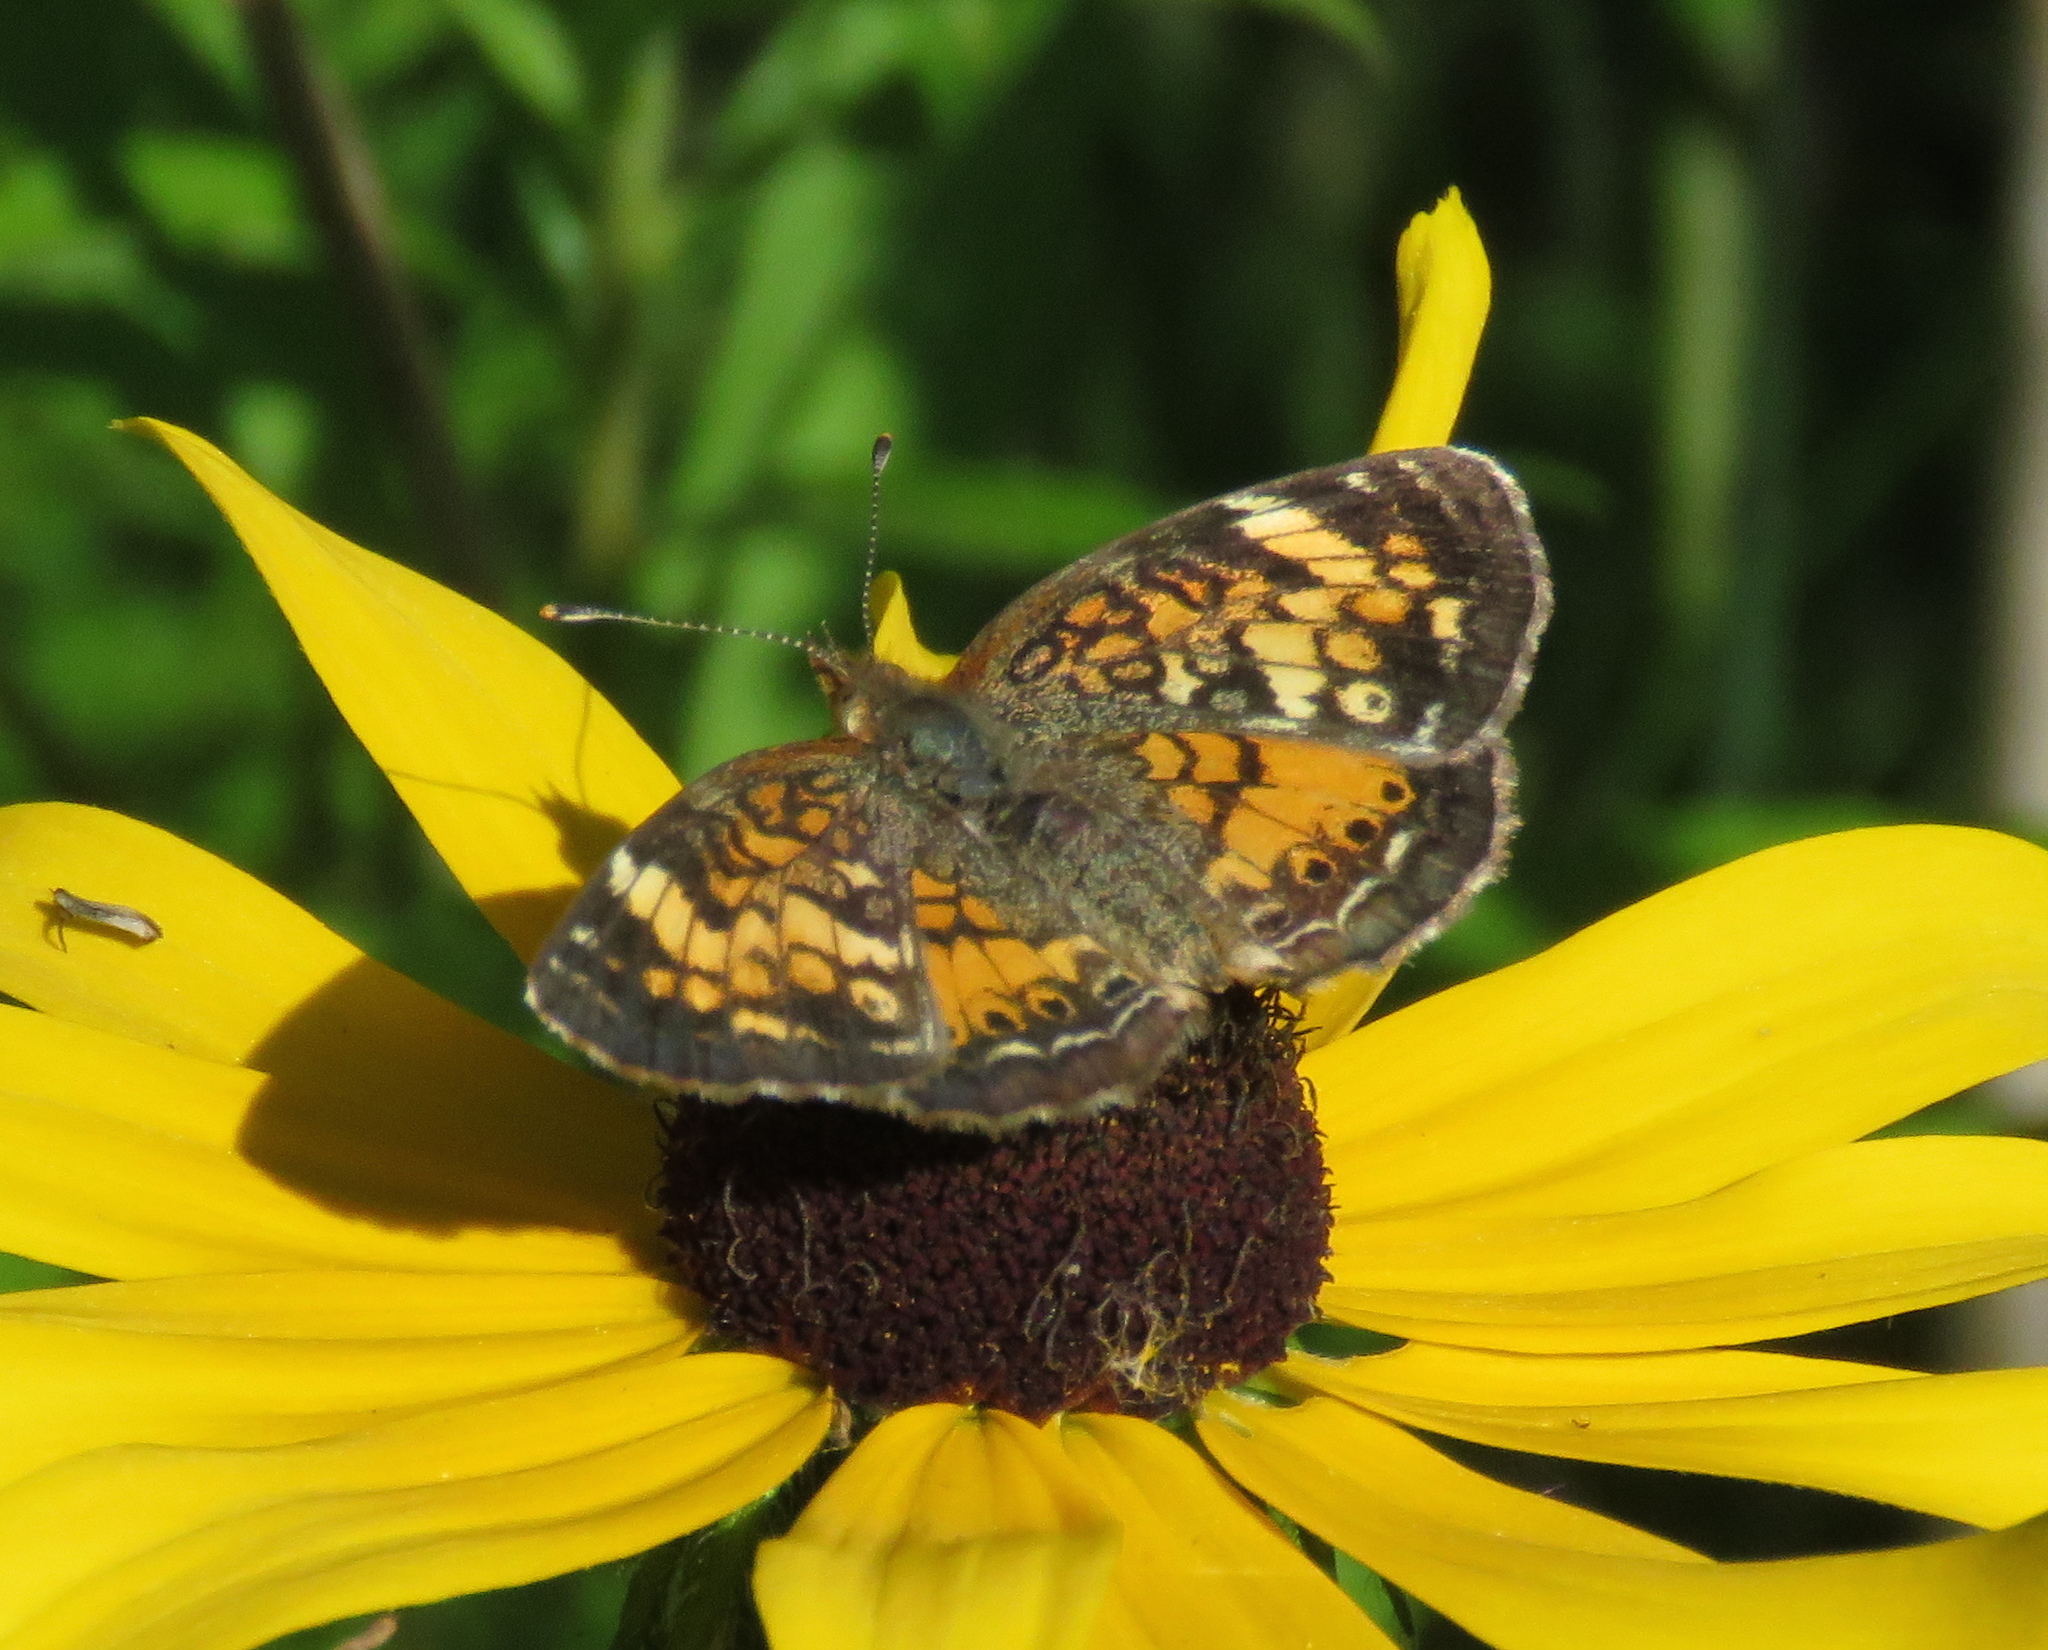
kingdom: Animalia
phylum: Arthropoda
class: Insecta
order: Lepidoptera
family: Nymphalidae
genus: Phyciodes
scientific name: Phyciodes tharos
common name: Pearl crescent
